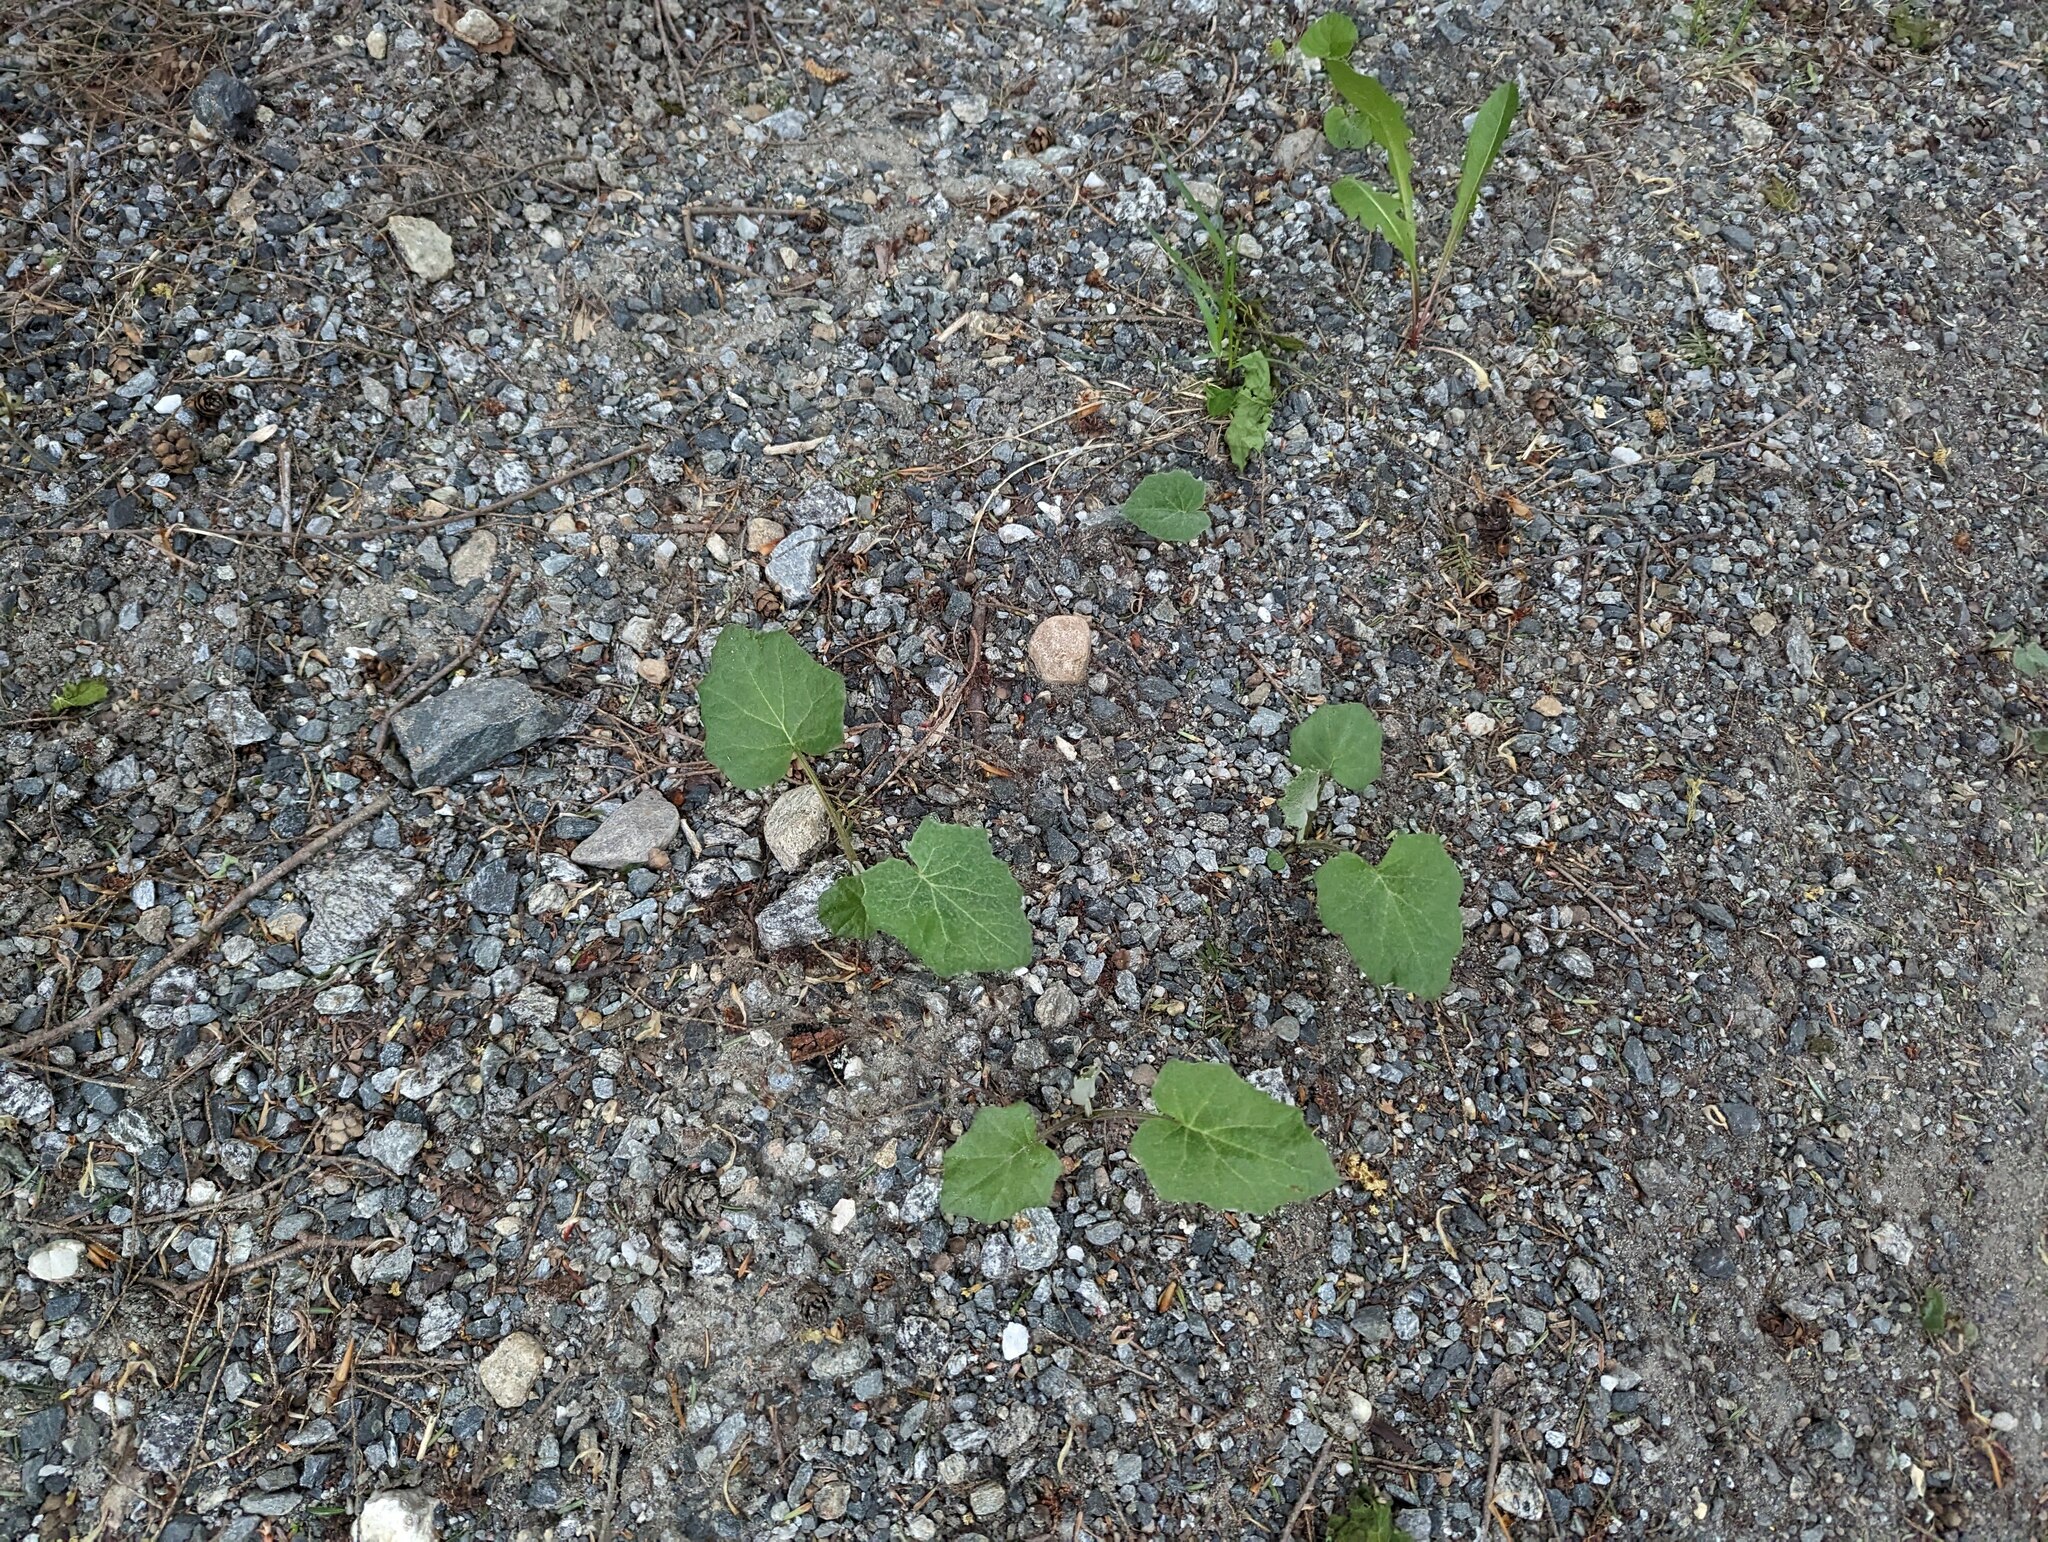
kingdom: Plantae
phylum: Tracheophyta
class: Magnoliopsida
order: Asterales
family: Asteraceae
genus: Tussilago
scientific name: Tussilago farfara
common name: Coltsfoot
